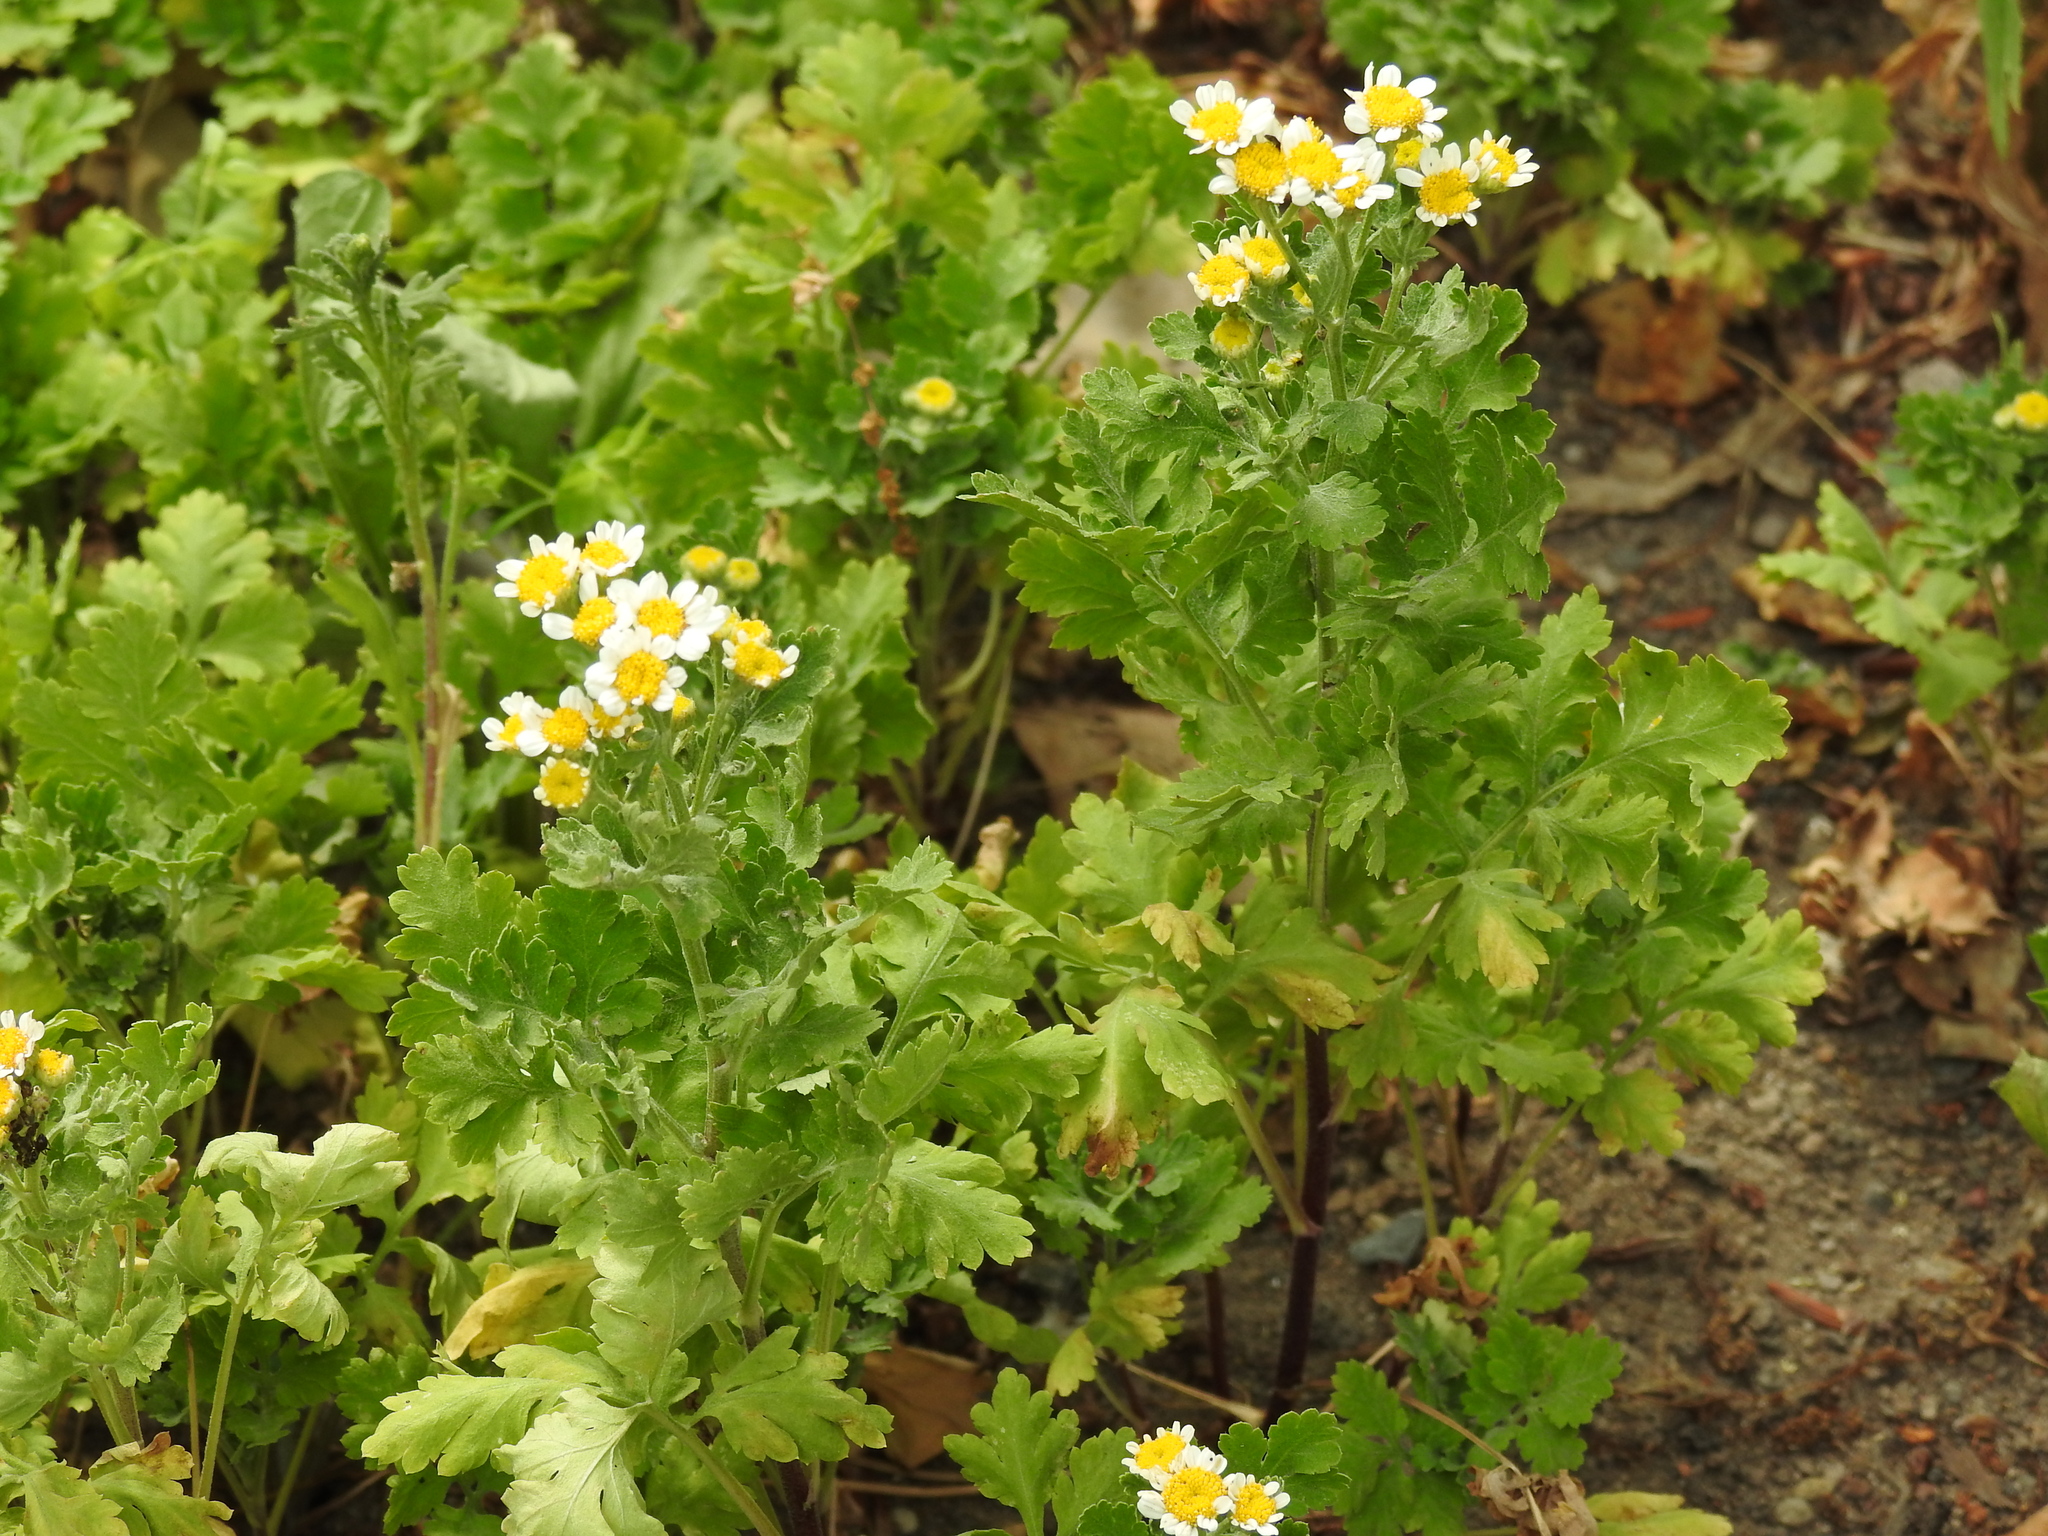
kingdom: Plantae
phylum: Tracheophyta
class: Magnoliopsida
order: Asterales
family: Asteraceae
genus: Tanacetum
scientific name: Tanacetum parthenium
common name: Feverfew
